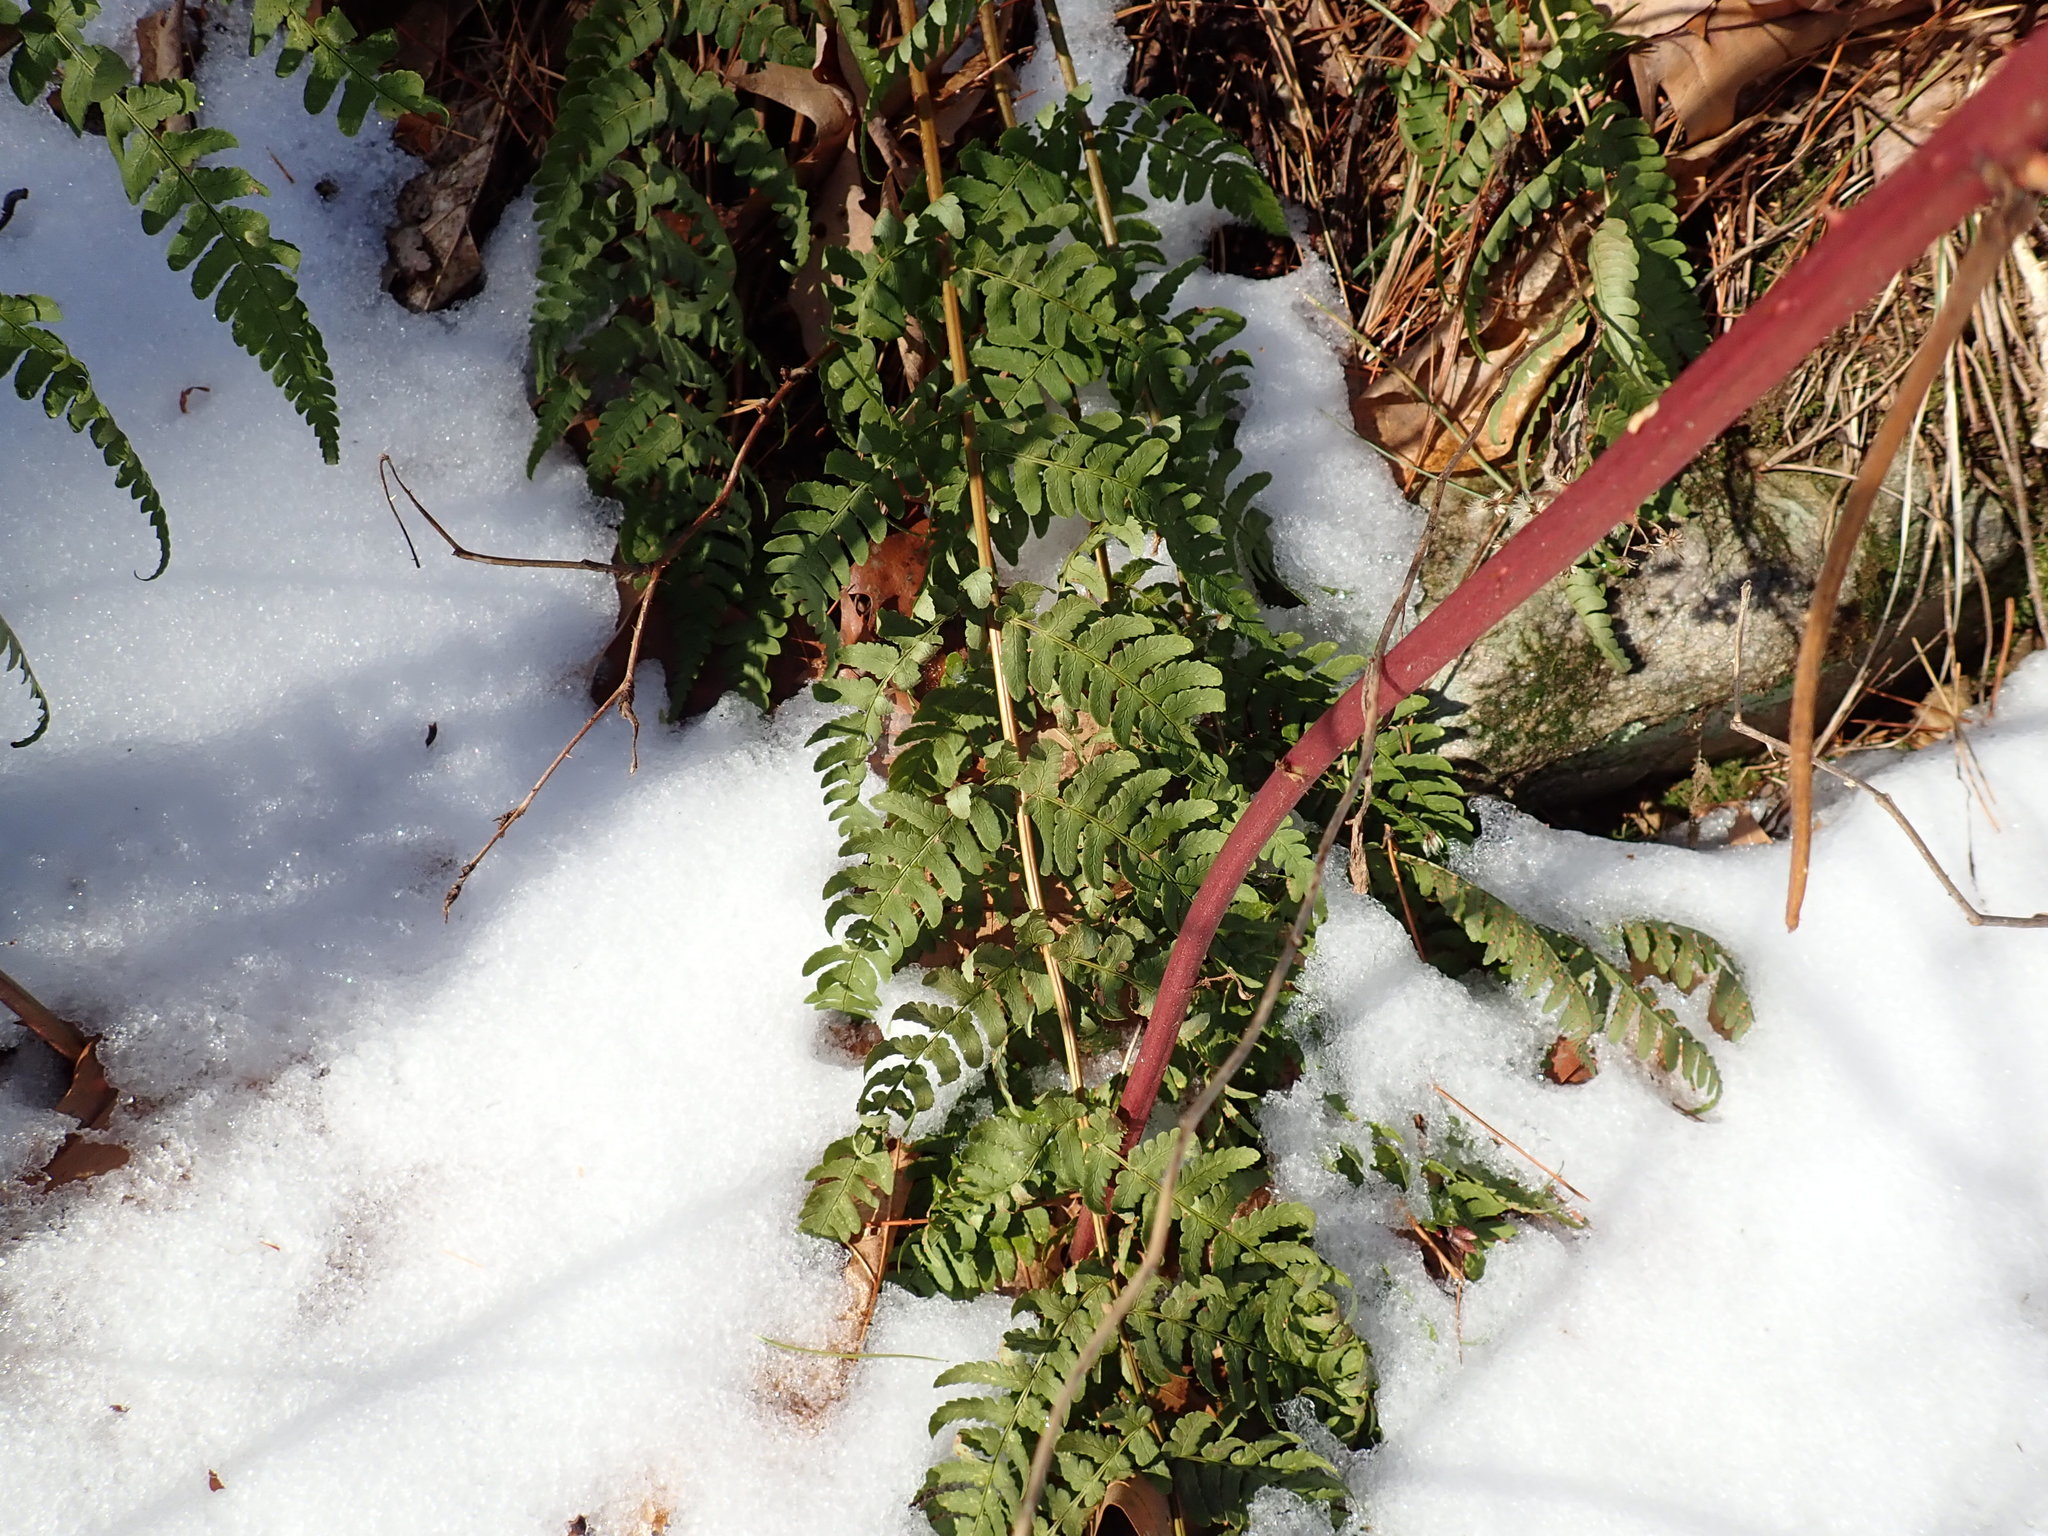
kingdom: Plantae
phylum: Tracheophyta
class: Polypodiopsida
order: Polypodiales
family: Dryopteridaceae
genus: Dryopteris
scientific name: Dryopteris marginalis
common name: Marginal wood fern
